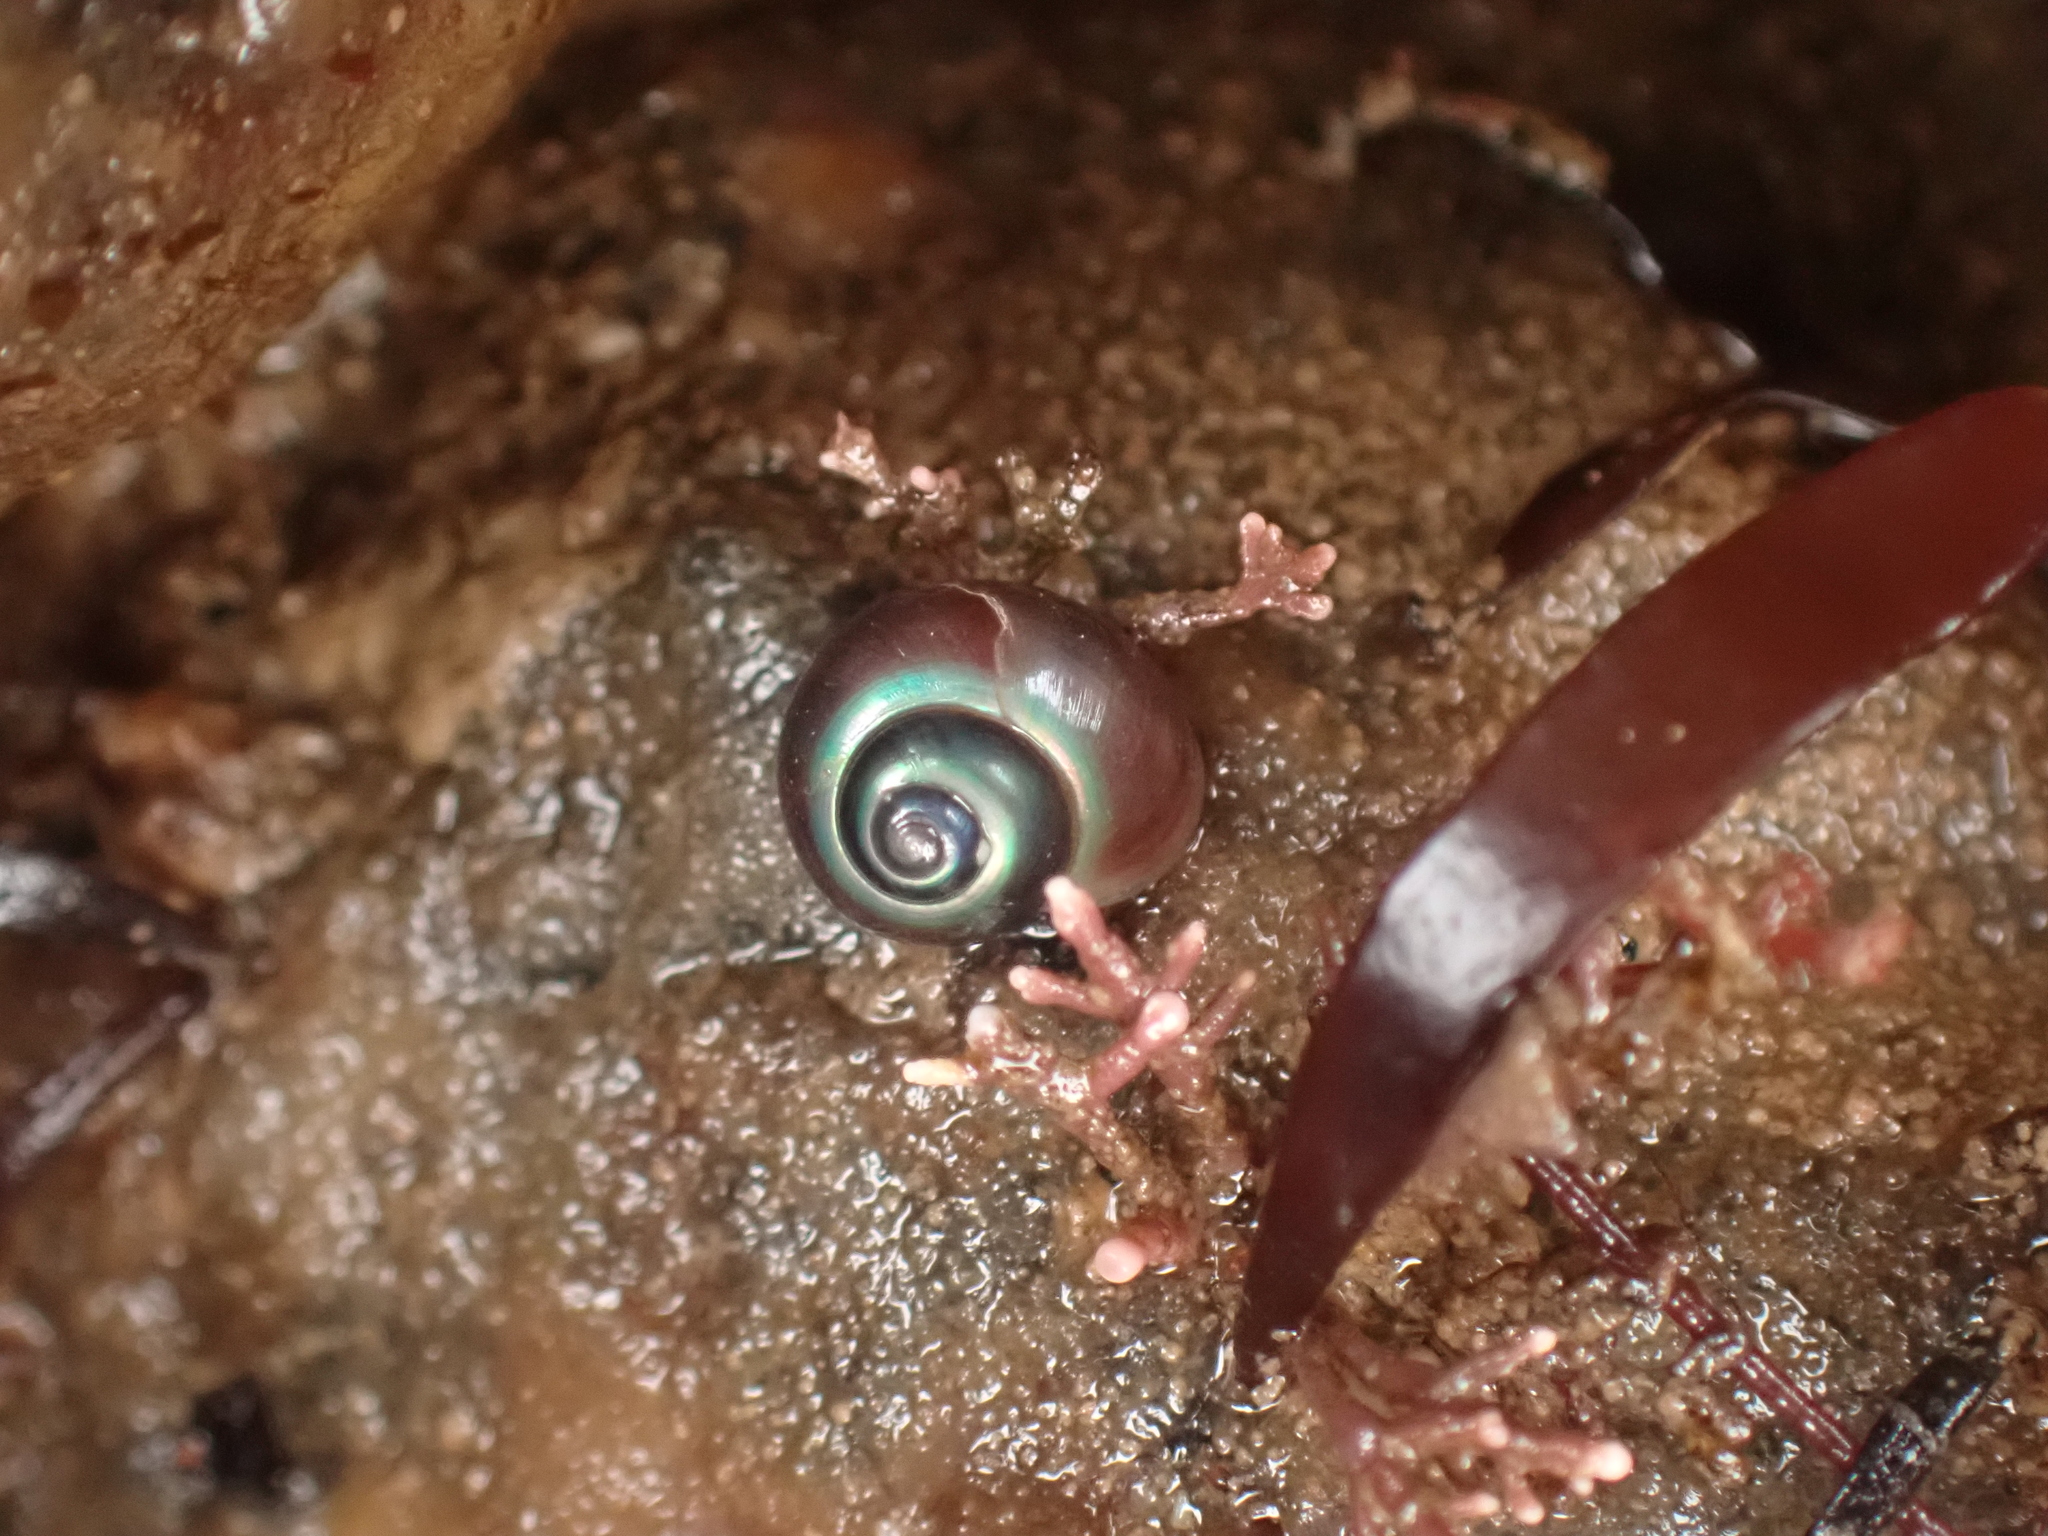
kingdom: Animalia
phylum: Mollusca
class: Gastropoda
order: Trochida
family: Margaritidae
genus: Margarites
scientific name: Margarites helicinus
